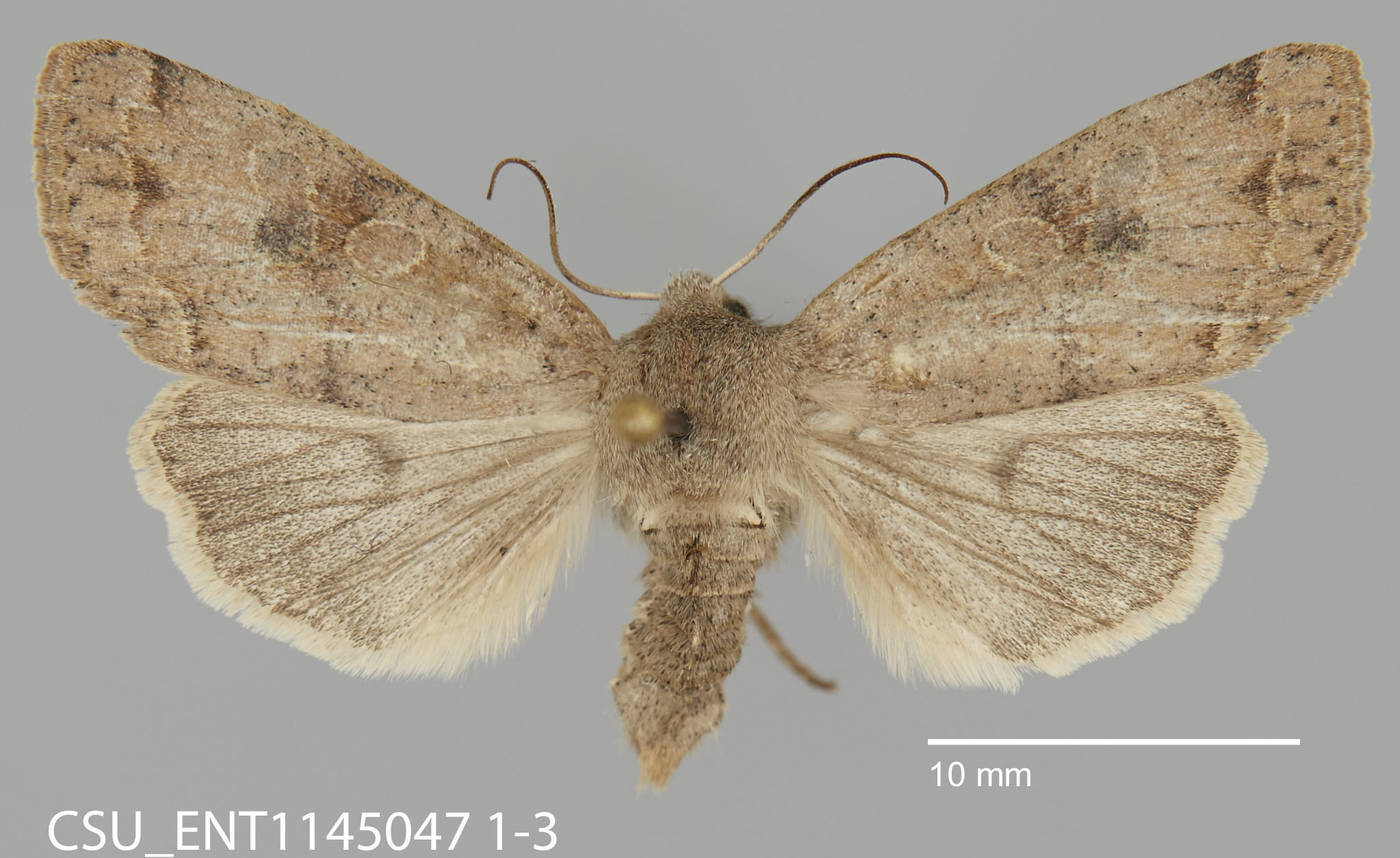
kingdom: Animalia
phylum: Arthropoda
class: Insecta
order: Lepidoptera
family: Noctuidae
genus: Orthosia
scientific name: Orthosia hibisci
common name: Green fruitworm
